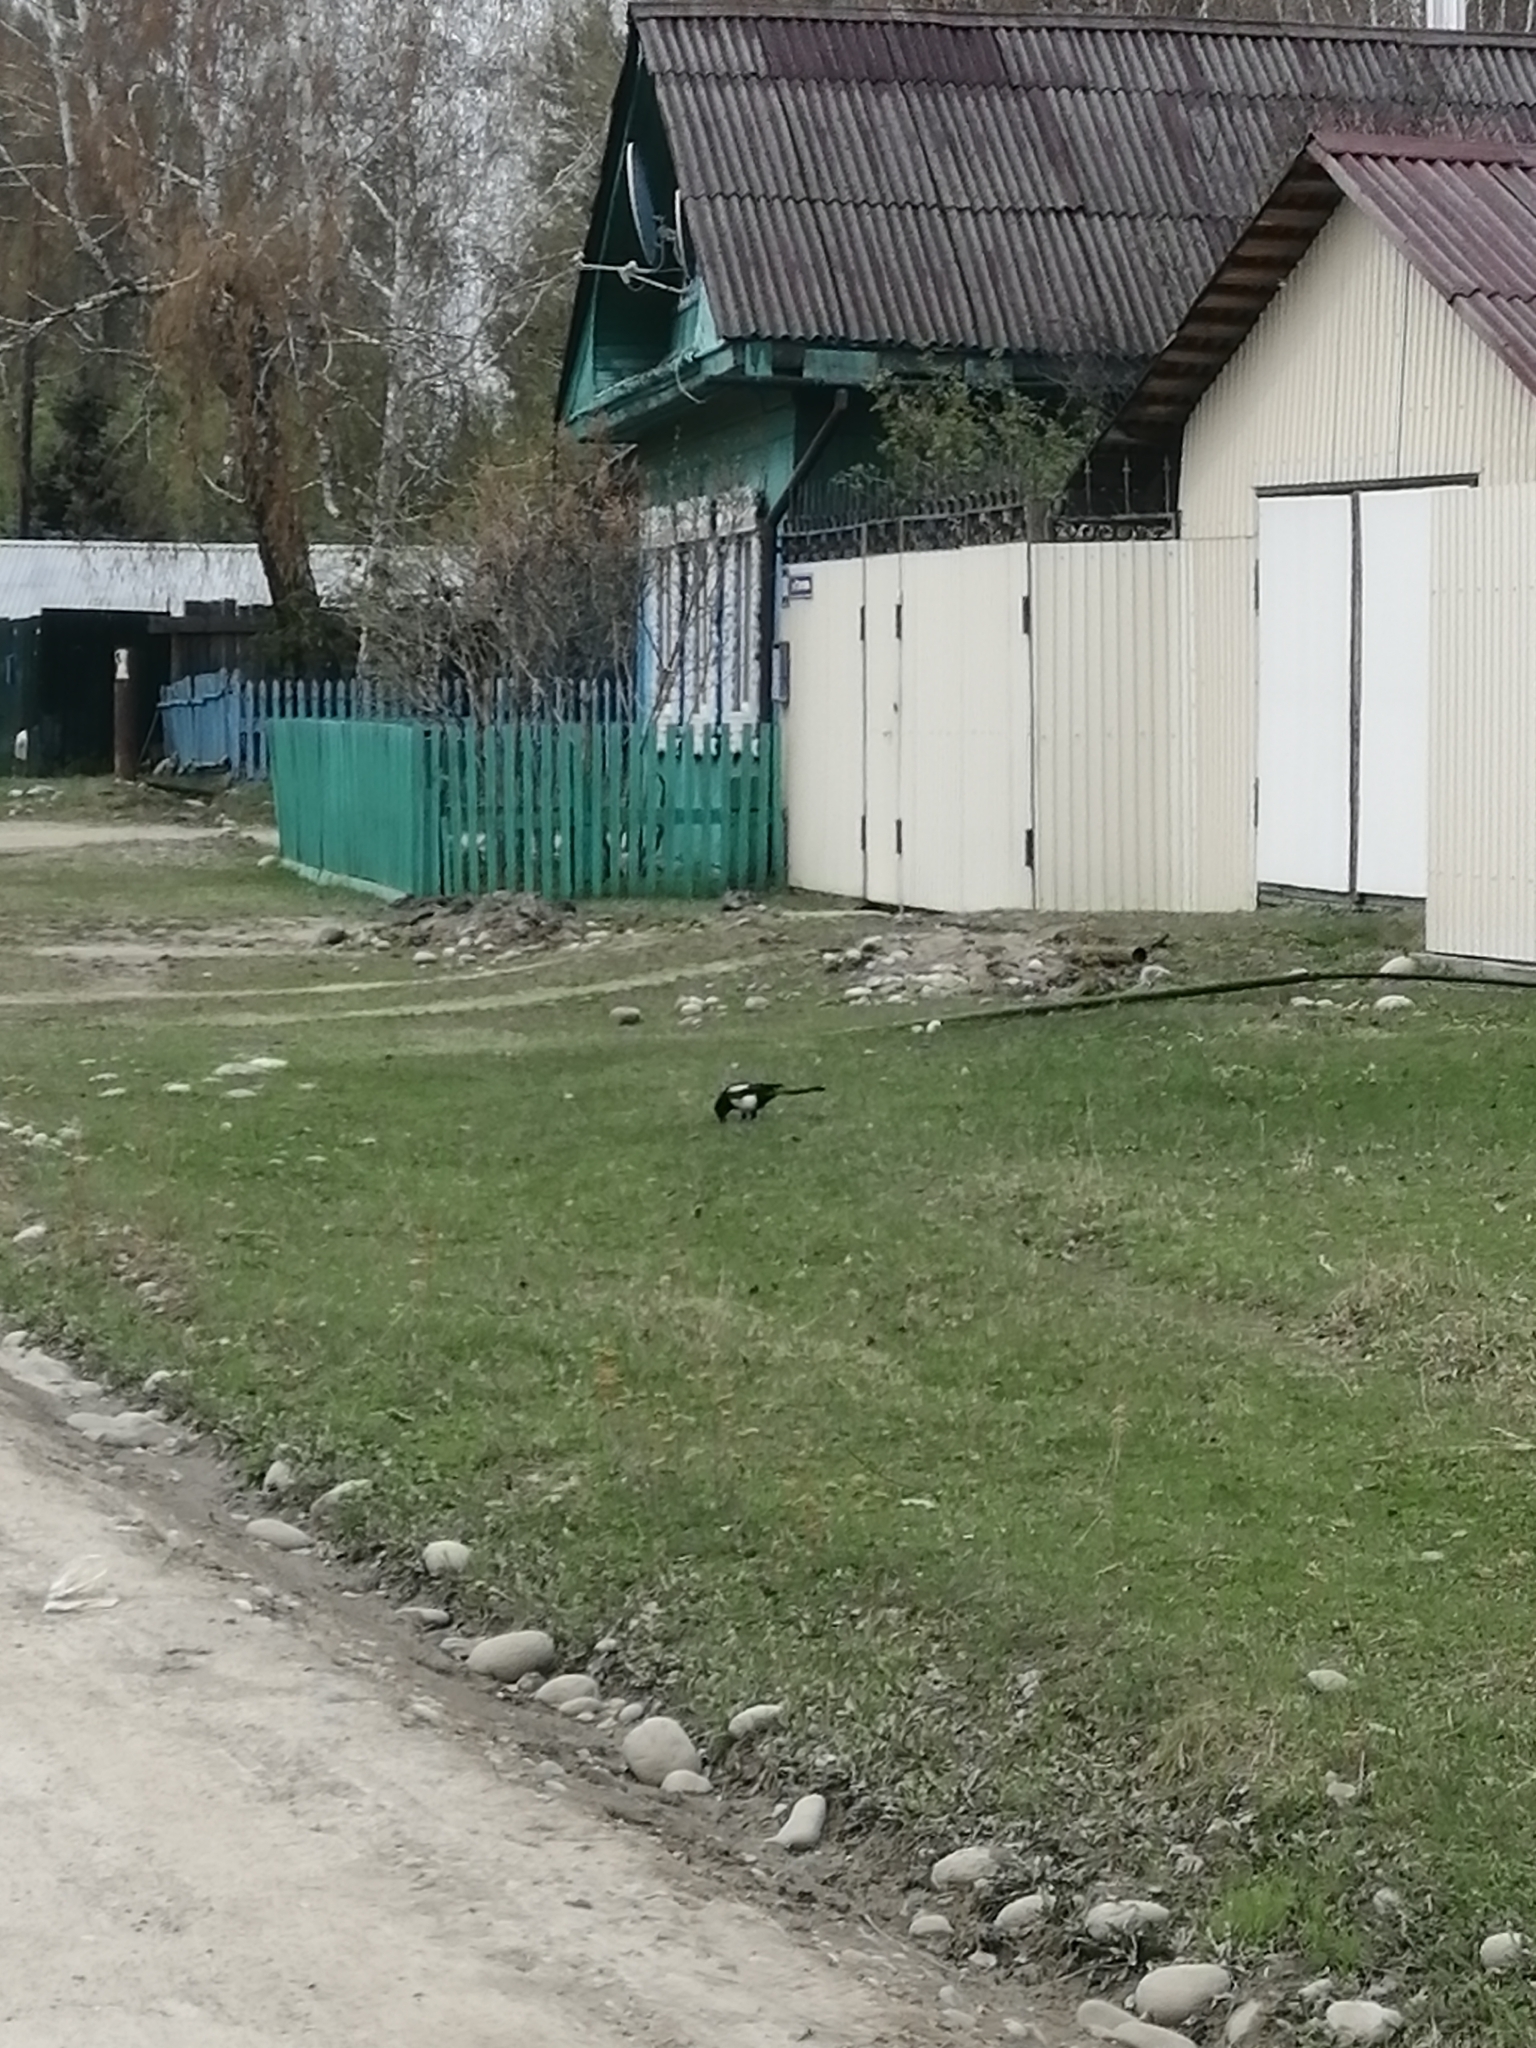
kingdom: Animalia
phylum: Chordata
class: Aves
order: Passeriformes
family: Corvidae
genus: Pica
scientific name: Pica pica
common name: Eurasian magpie
